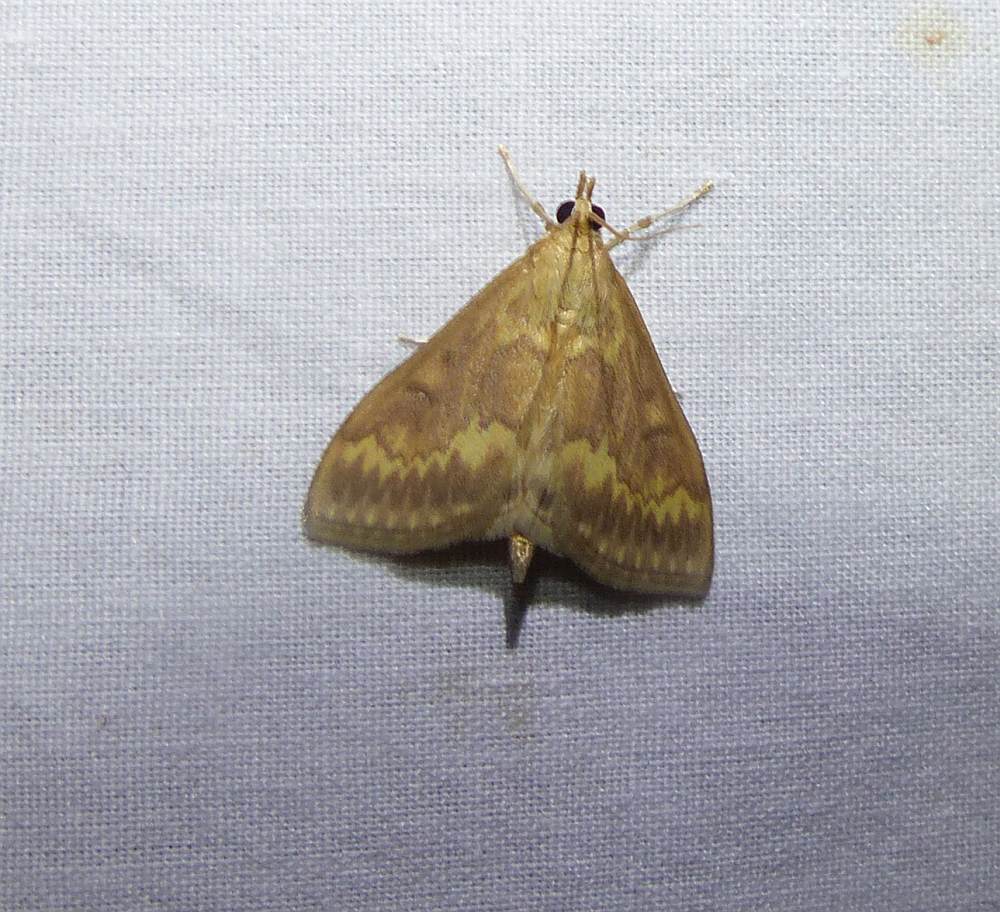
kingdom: Animalia
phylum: Arthropoda
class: Insecta
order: Lepidoptera
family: Crambidae
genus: Ostrinia
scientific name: Ostrinia nubilalis
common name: European corn borer
